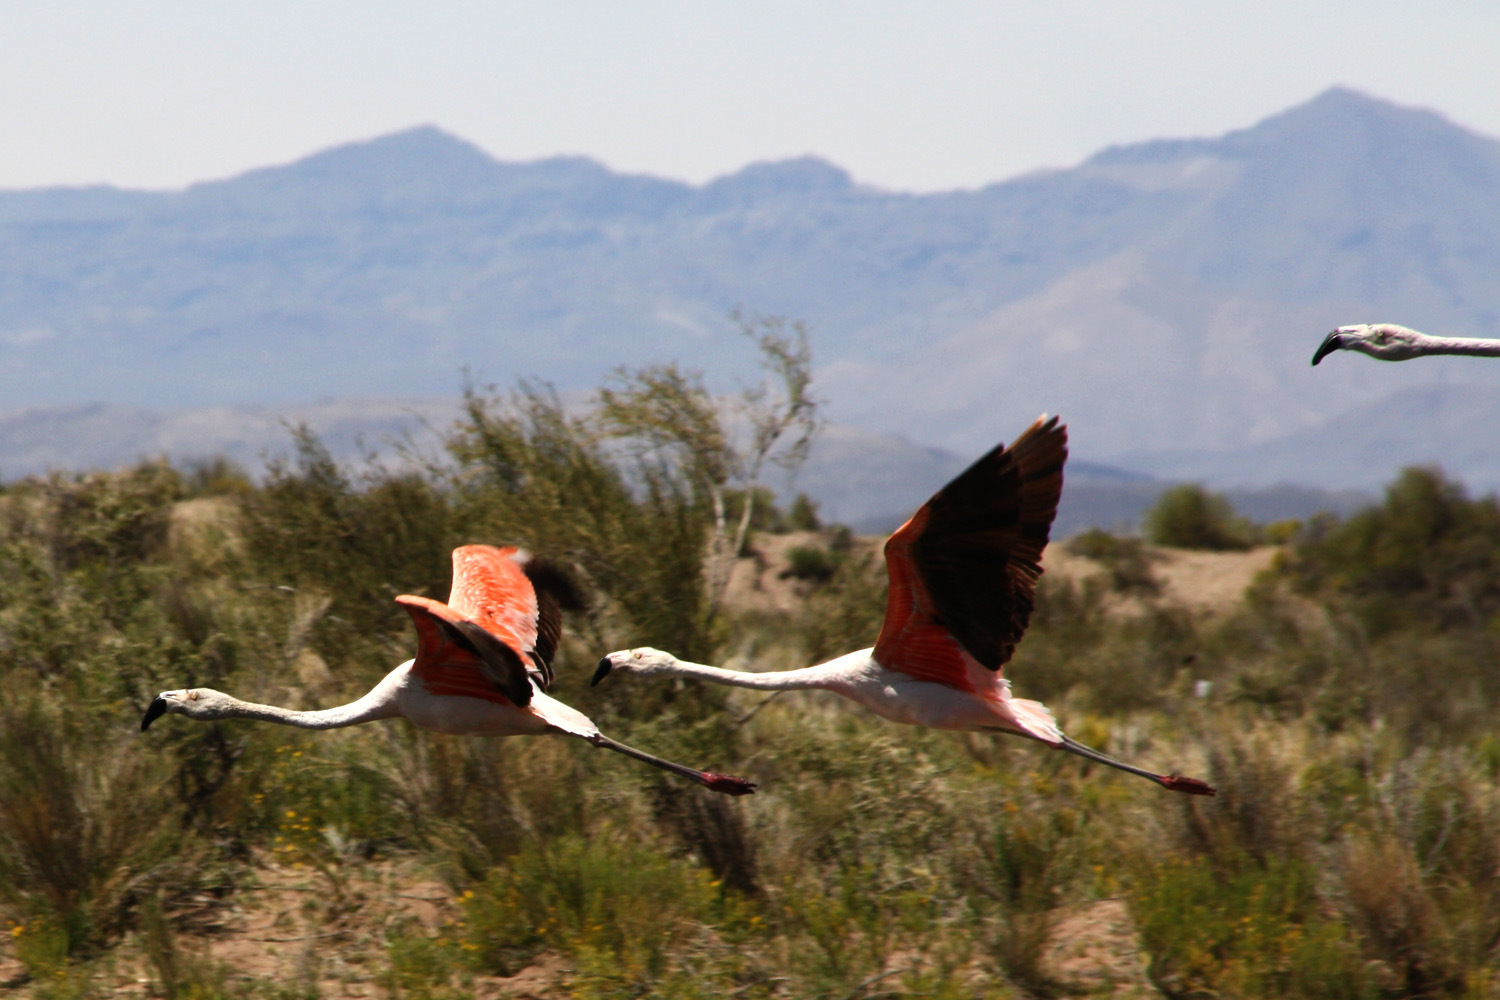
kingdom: Animalia
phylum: Chordata
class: Aves
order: Phoenicopteriformes
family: Phoenicopteridae
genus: Phoenicopterus
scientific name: Phoenicopterus chilensis
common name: Chilean flamingo
